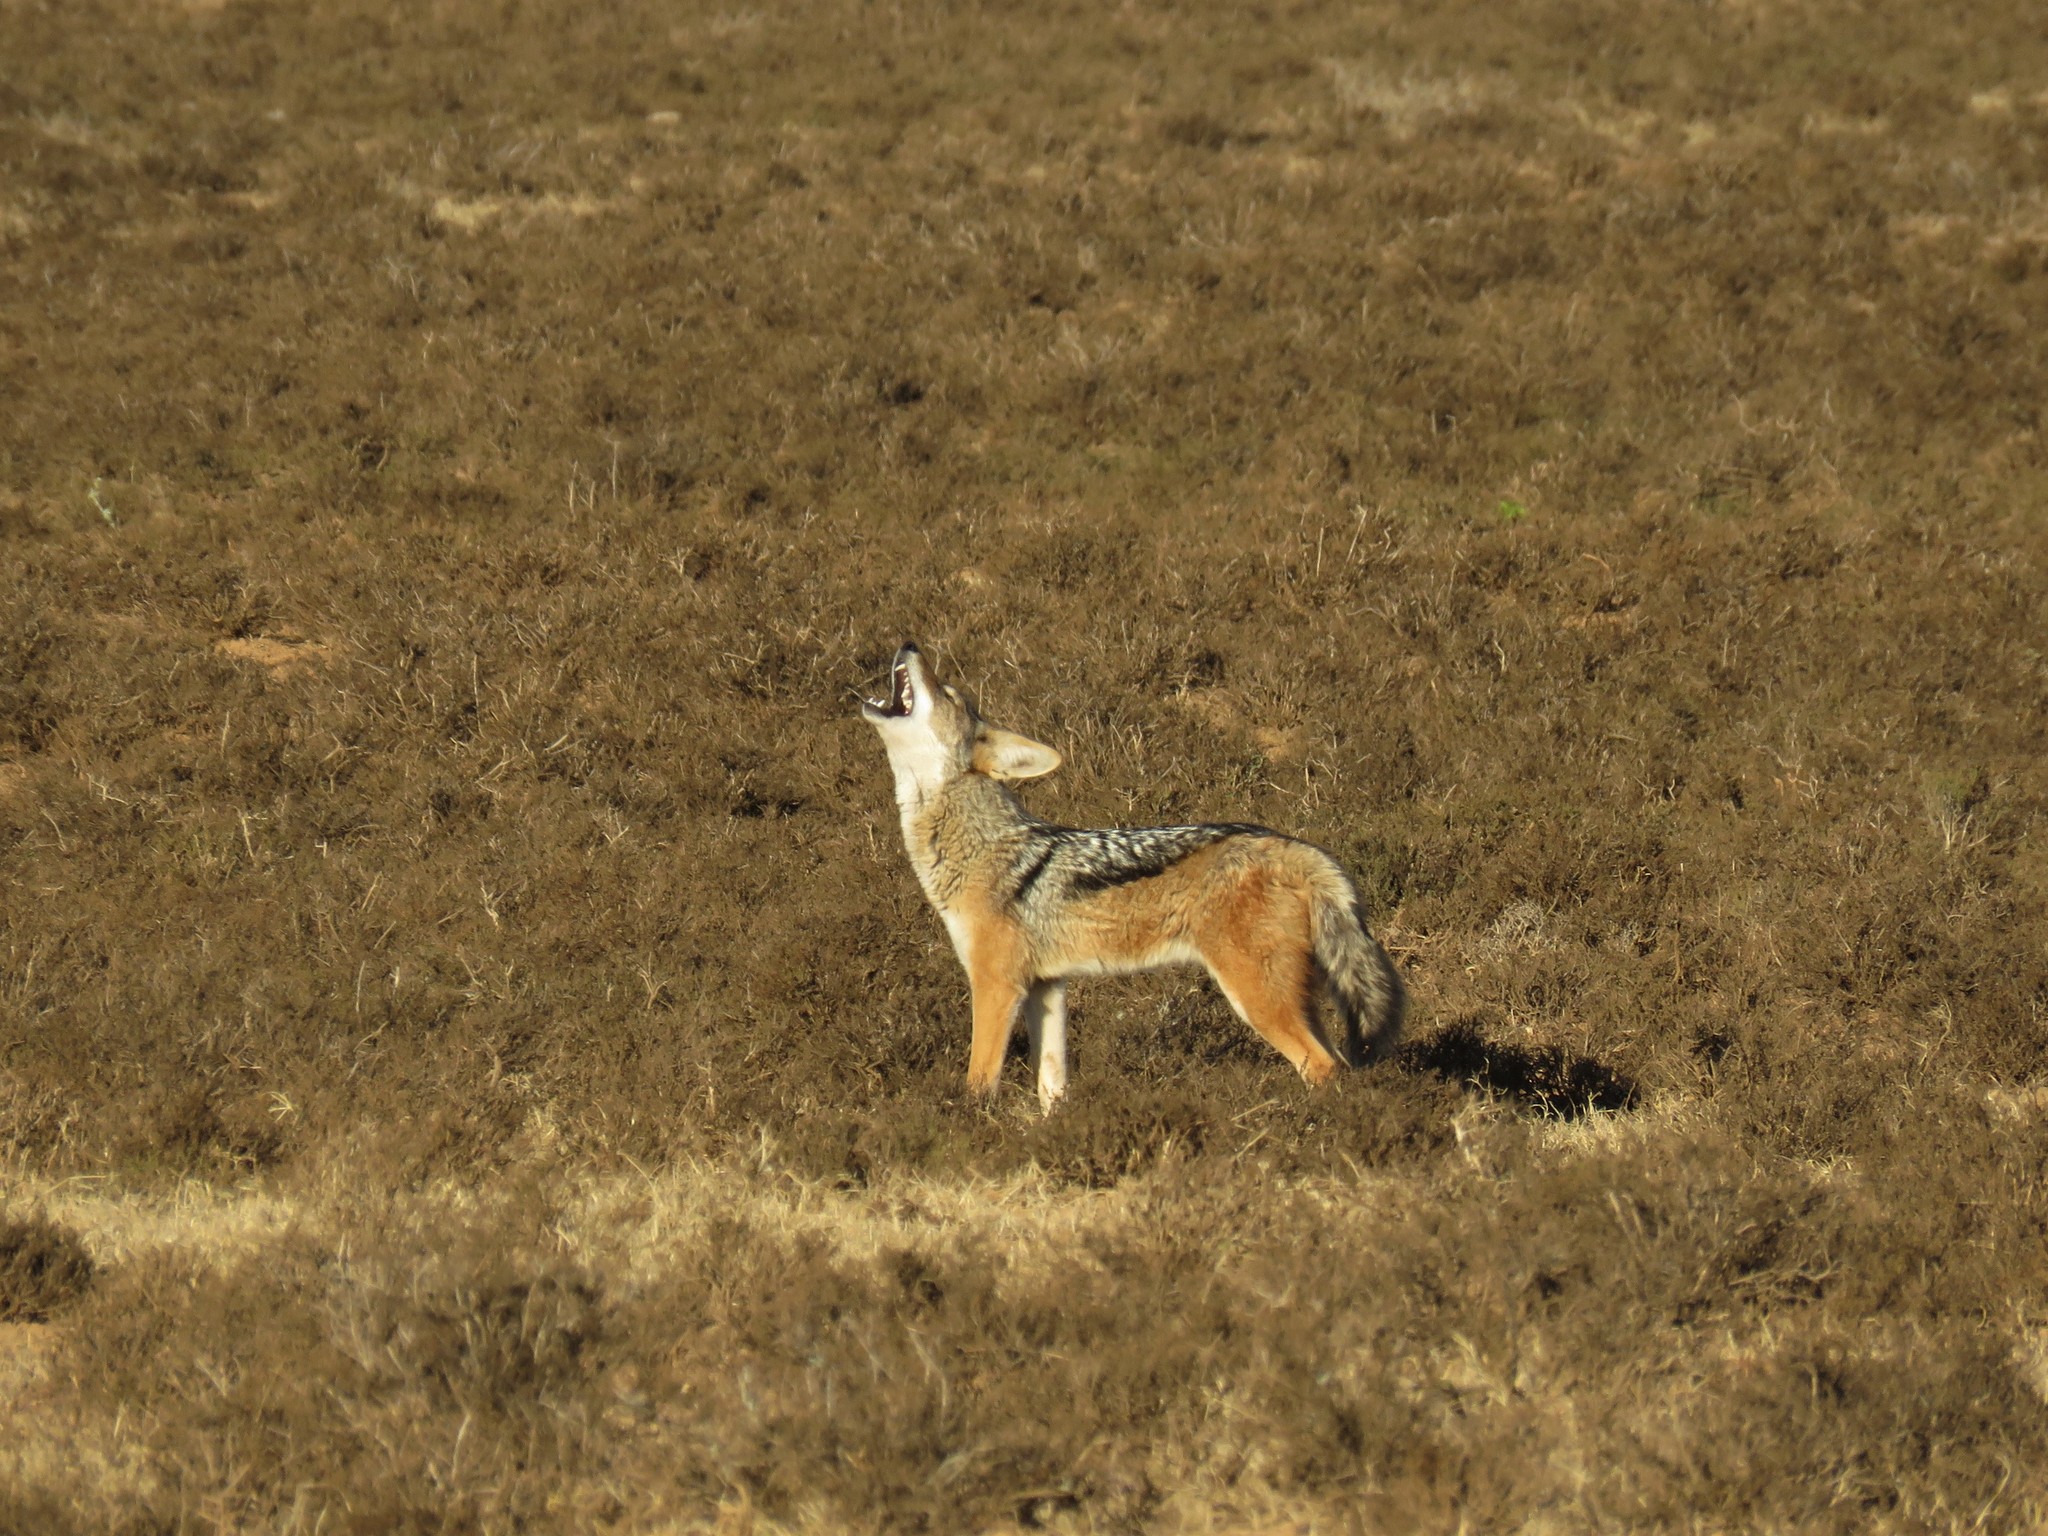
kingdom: Animalia
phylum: Chordata
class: Mammalia
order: Carnivora
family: Canidae
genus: Lupulella
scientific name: Lupulella
